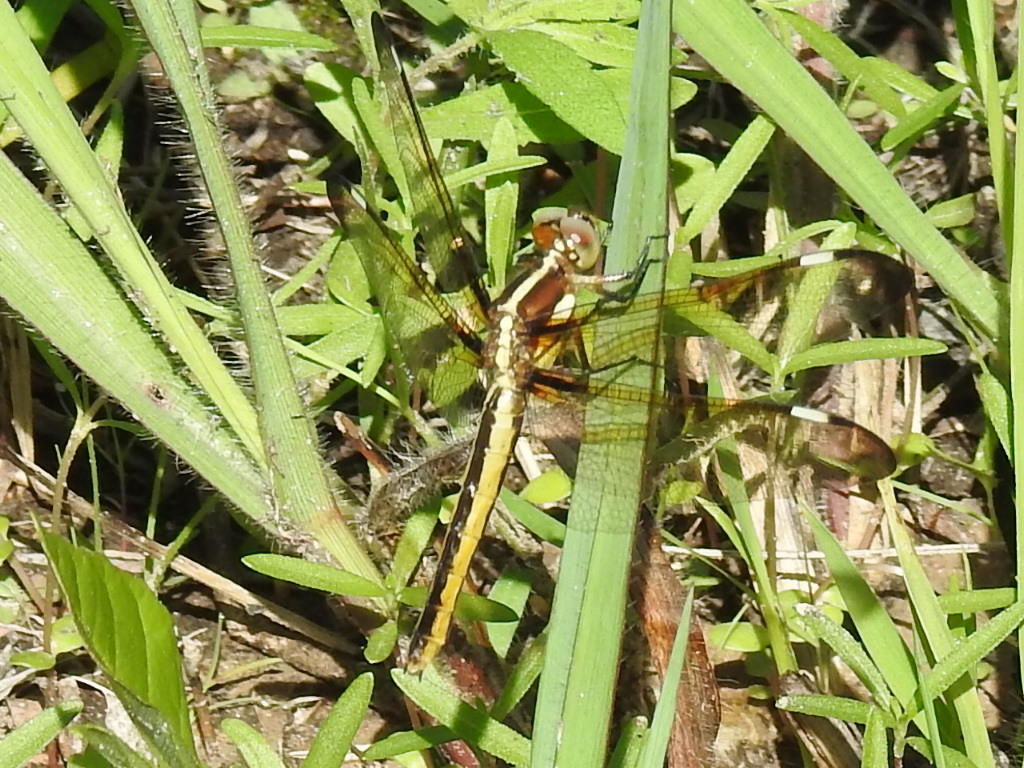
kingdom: Animalia
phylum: Arthropoda
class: Insecta
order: Odonata
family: Libellulidae
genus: Libellula
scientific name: Libellula cyanea
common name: Spangled skimmer
